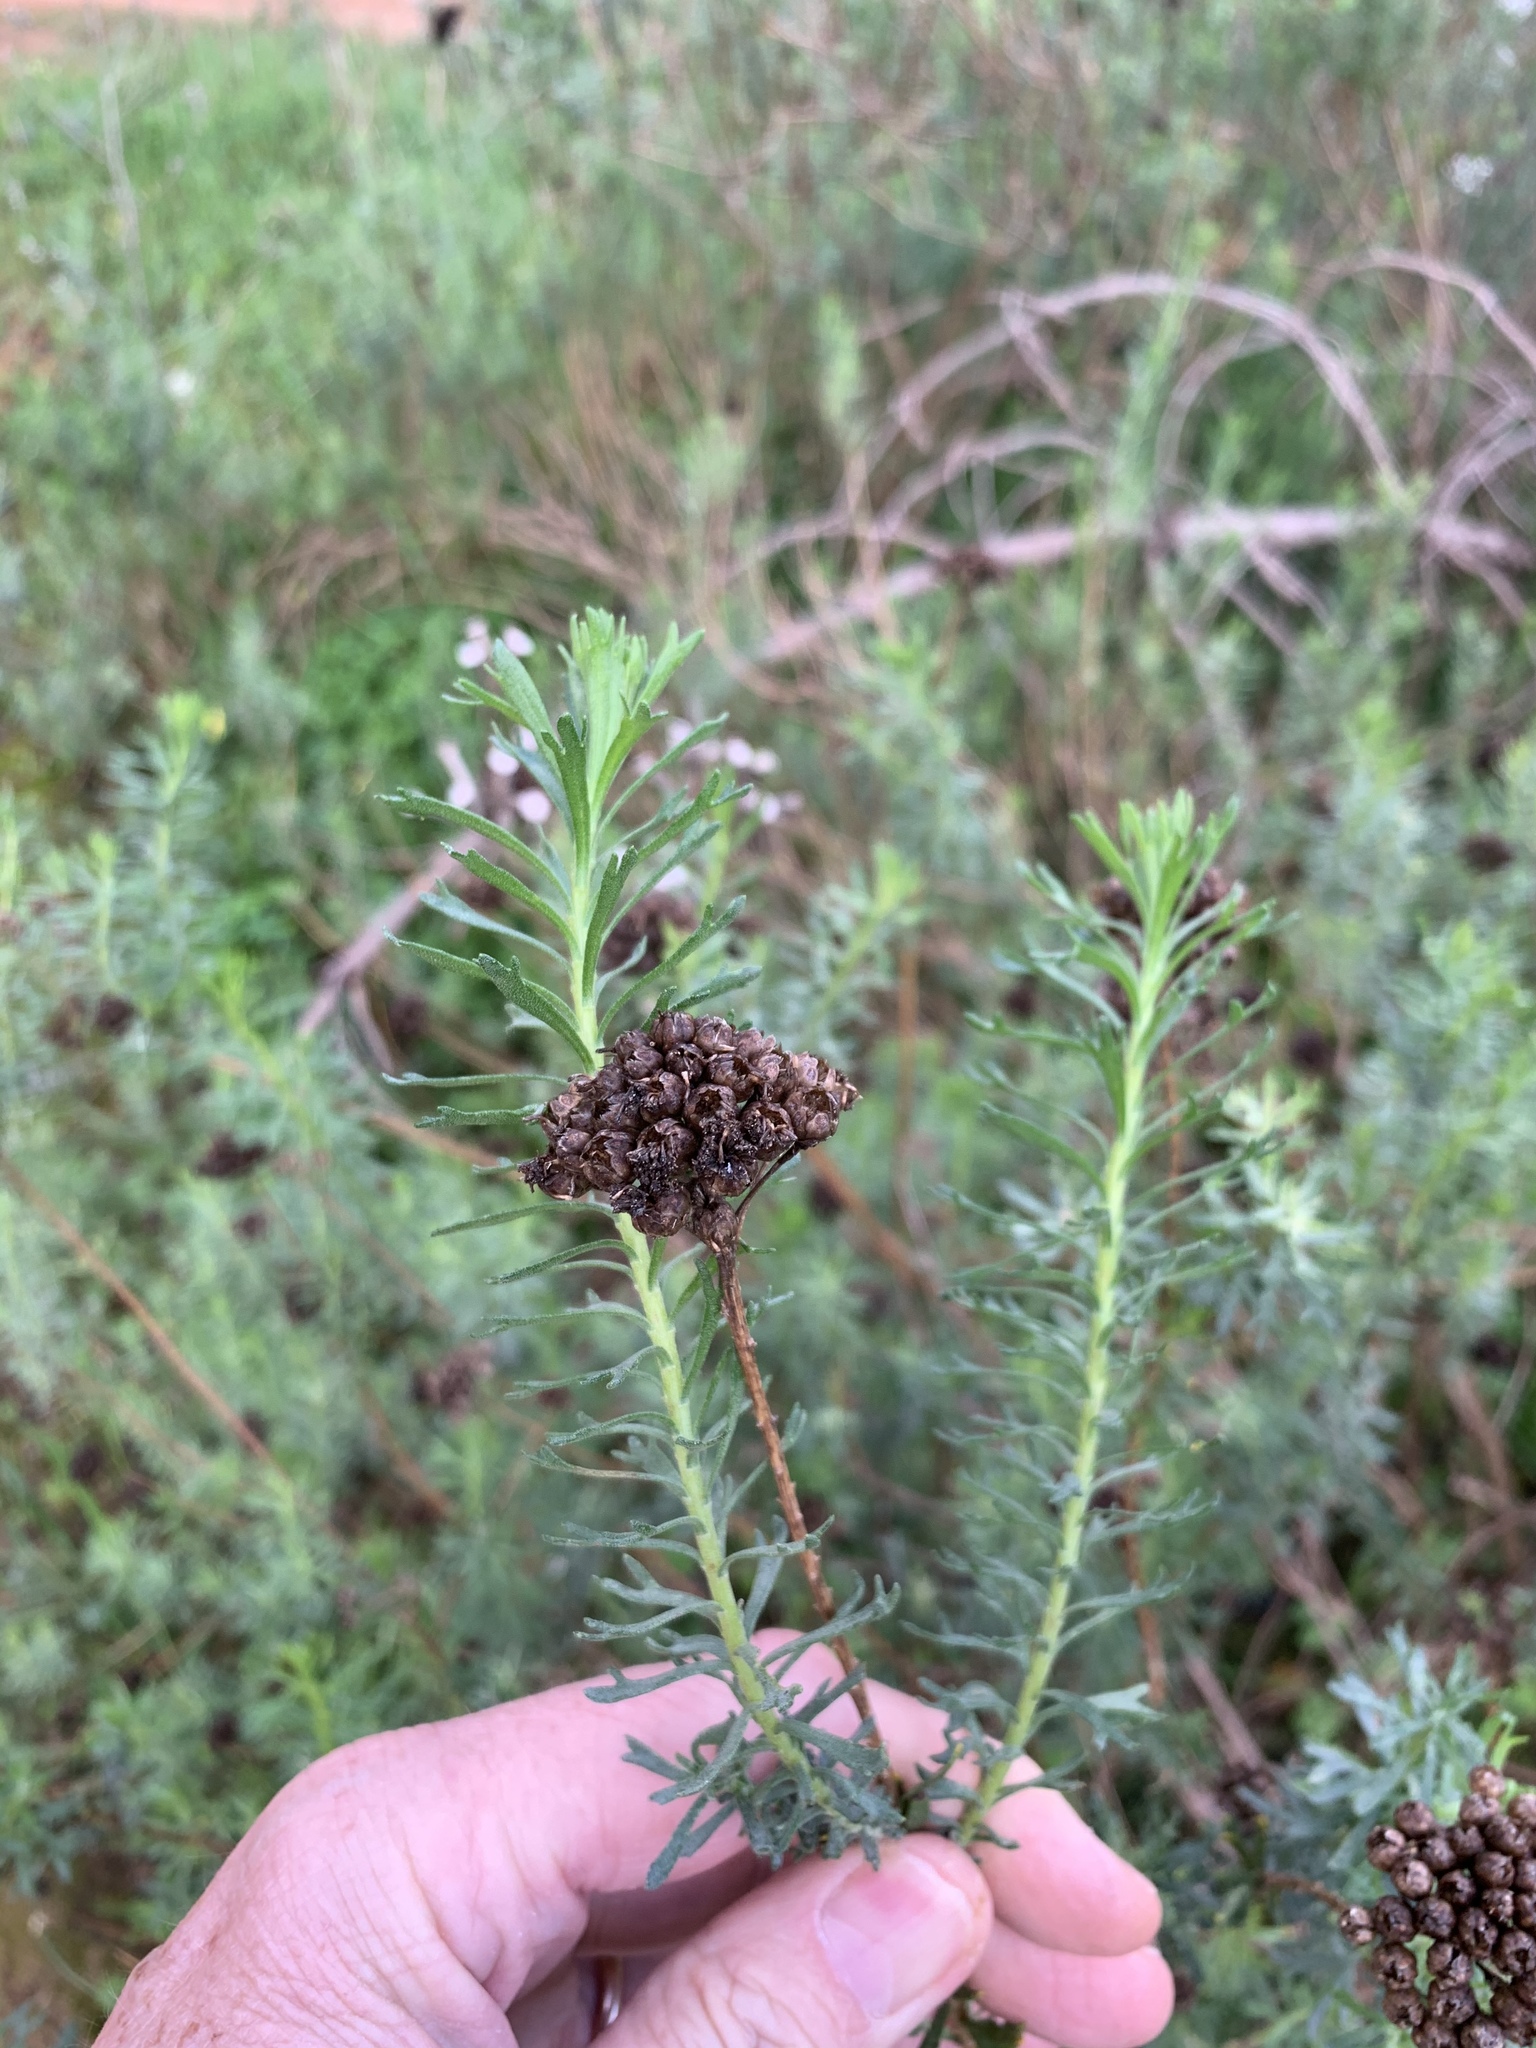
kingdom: Plantae
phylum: Tracheophyta
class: Magnoliopsida
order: Asterales
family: Asteraceae
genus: Athanasia
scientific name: Athanasia trifurcata
